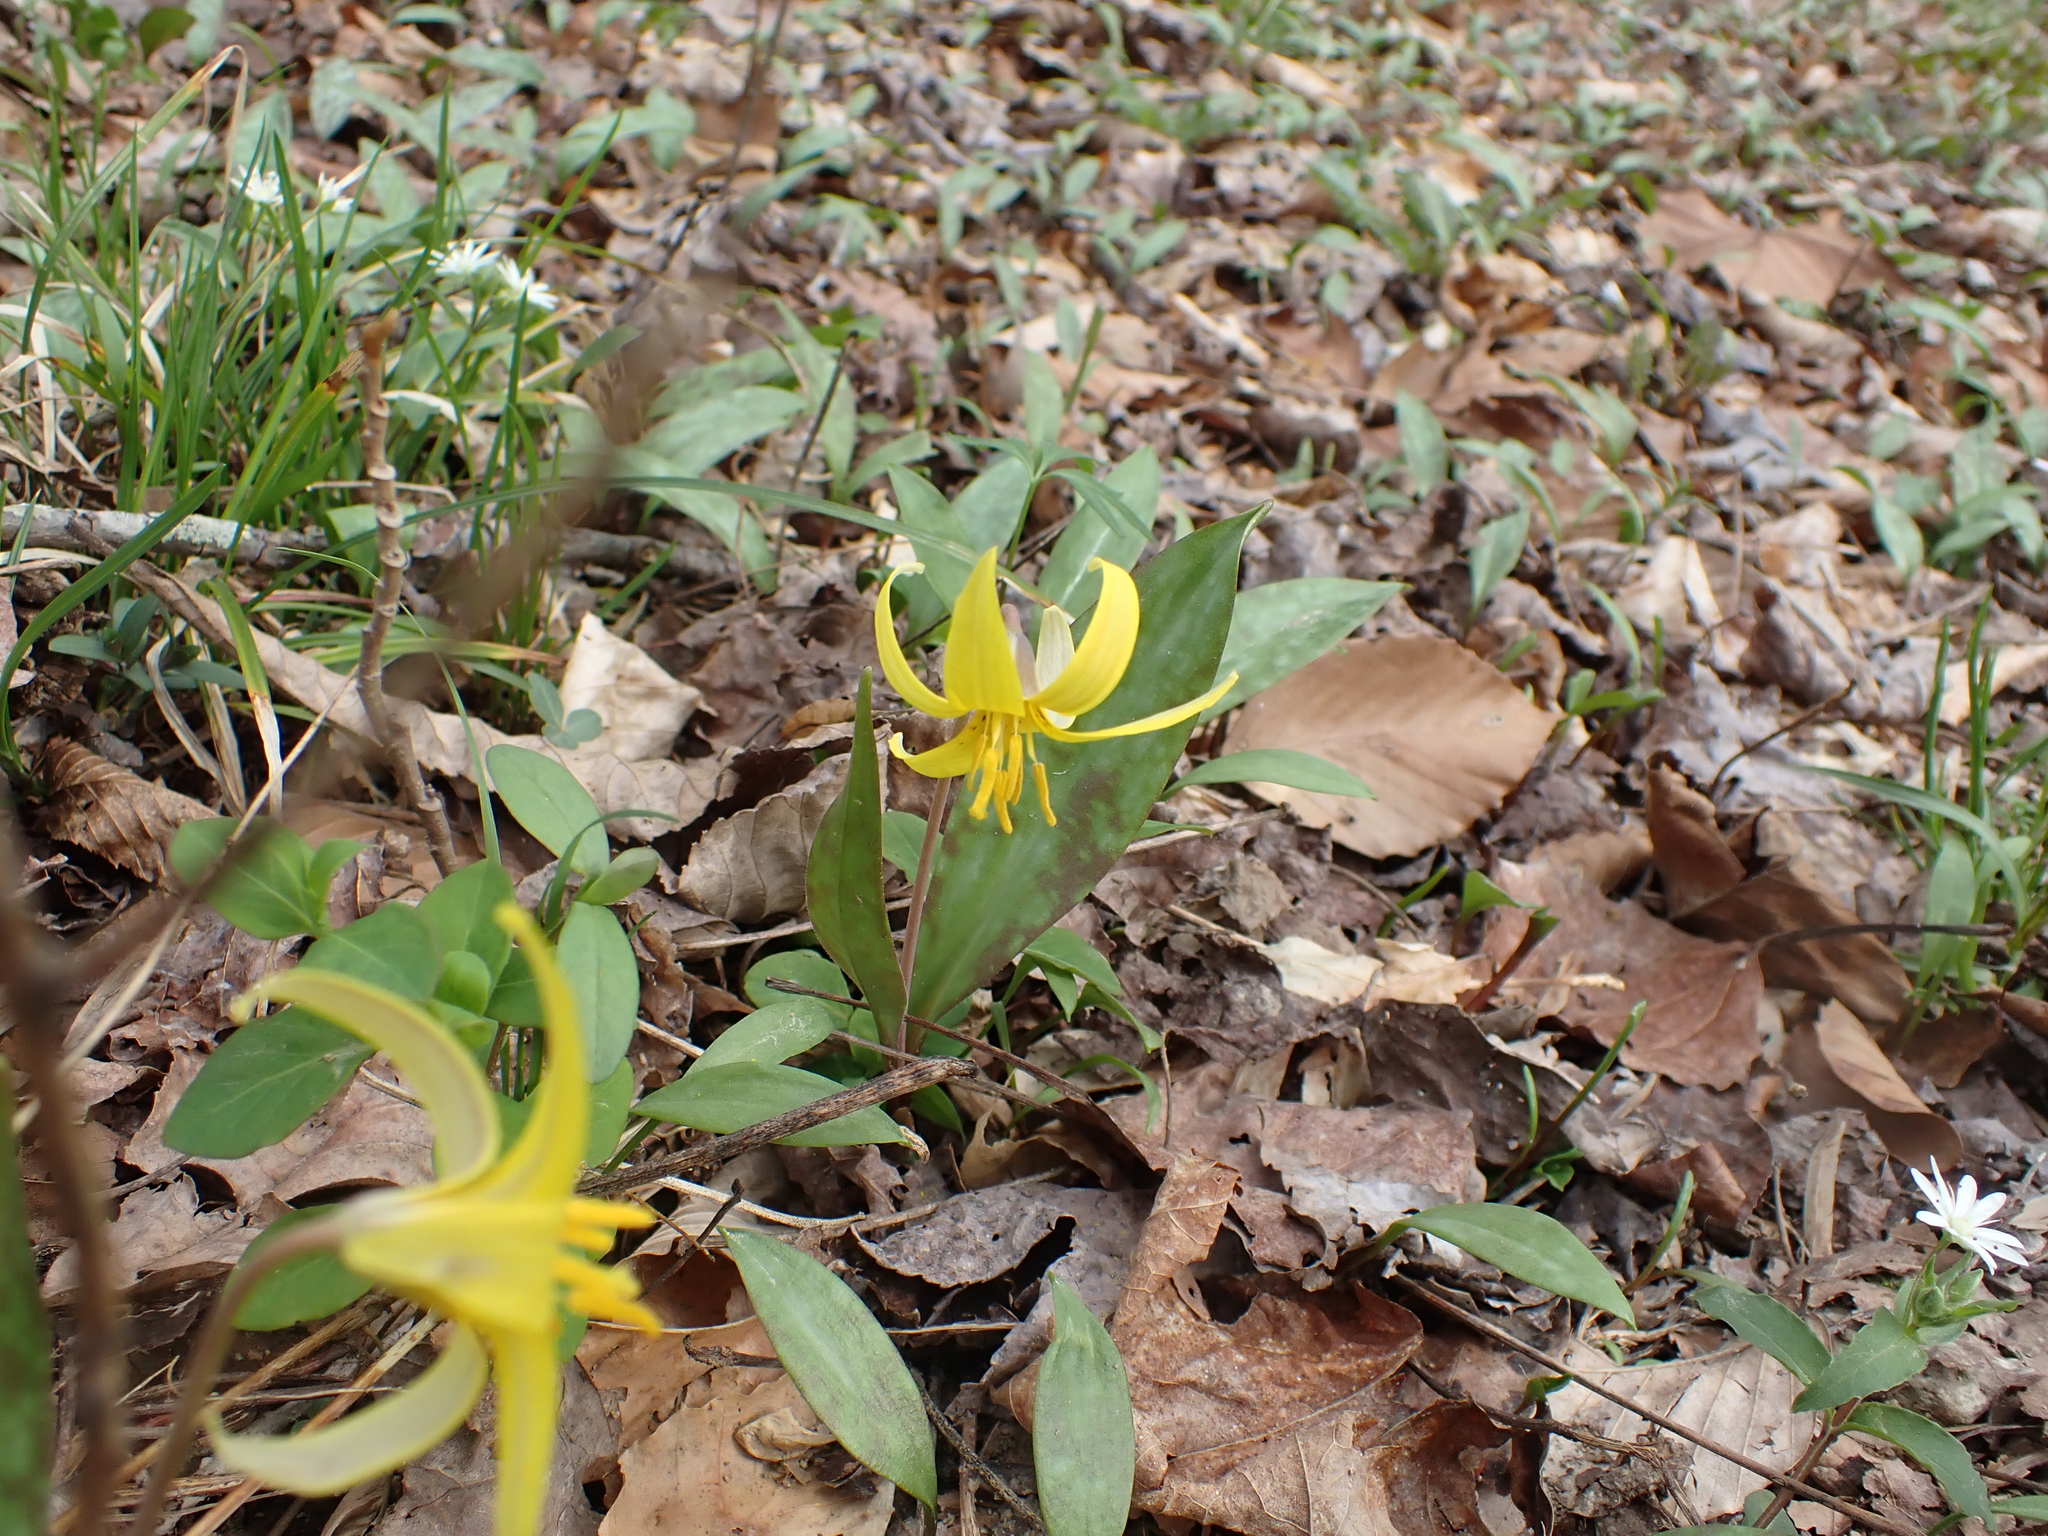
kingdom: Plantae
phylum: Tracheophyta
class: Liliopsida
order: Liliales
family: Liliaceae
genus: Erythronium
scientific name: Erythronium americanum
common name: Yellow adder's-tongue
